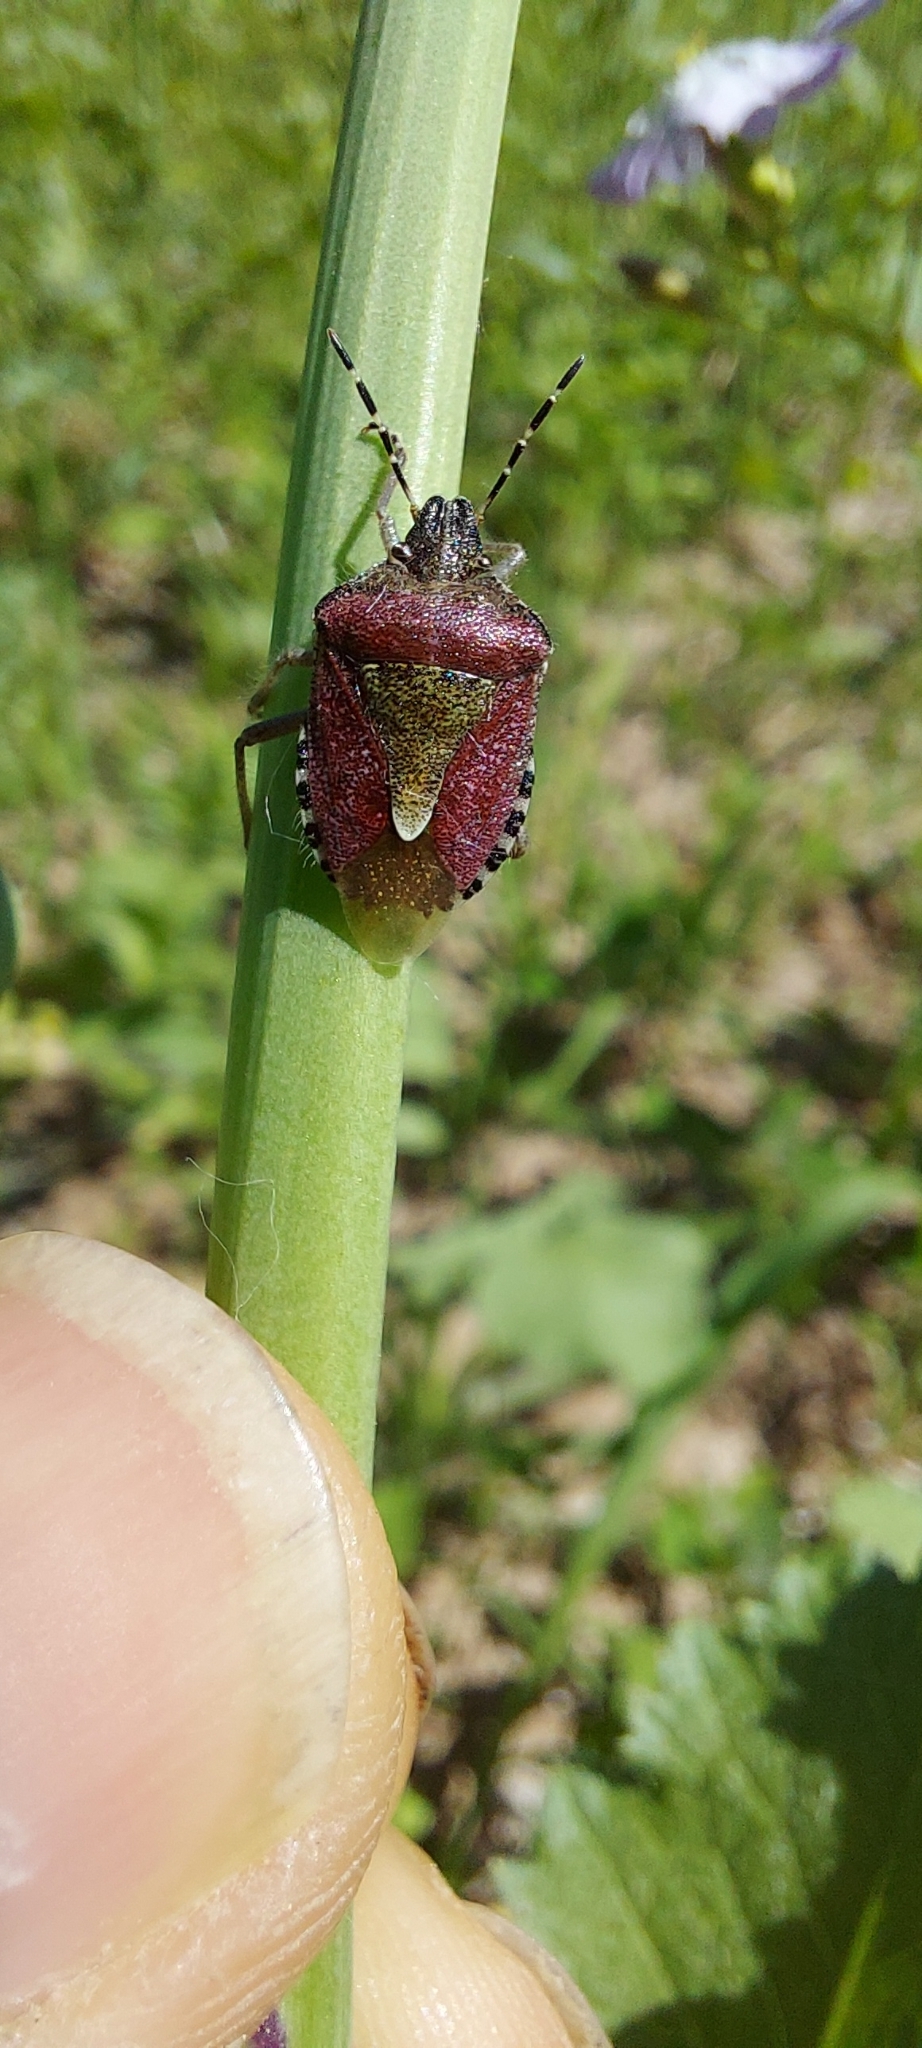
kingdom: Animalia
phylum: Arthropoda
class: Insecta
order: Hemiptera
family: Pentatomidae
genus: Dolycoris
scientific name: Dolycoris baccarum
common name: Sloe bug
